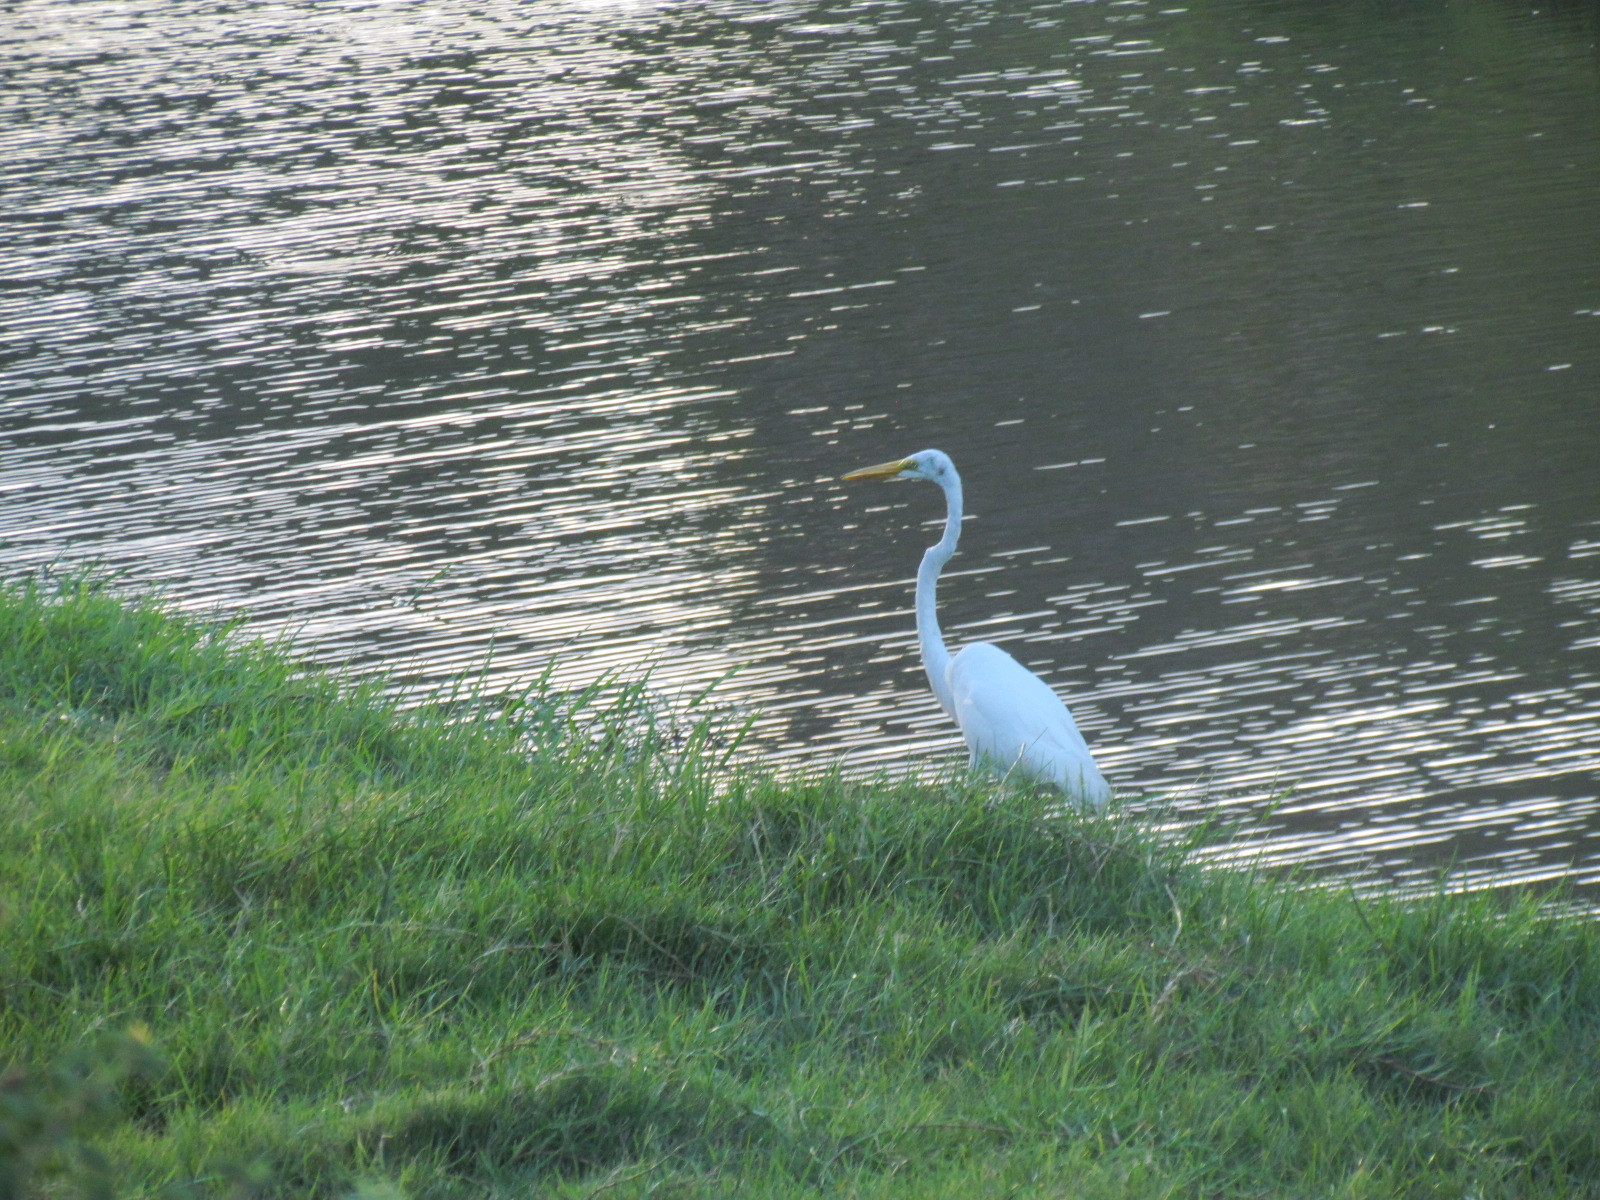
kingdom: Animalia
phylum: Chordata
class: Aves
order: Pelecaniformes
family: Ardeidae
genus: Ardea
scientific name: Ardea alba
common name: Great egret
